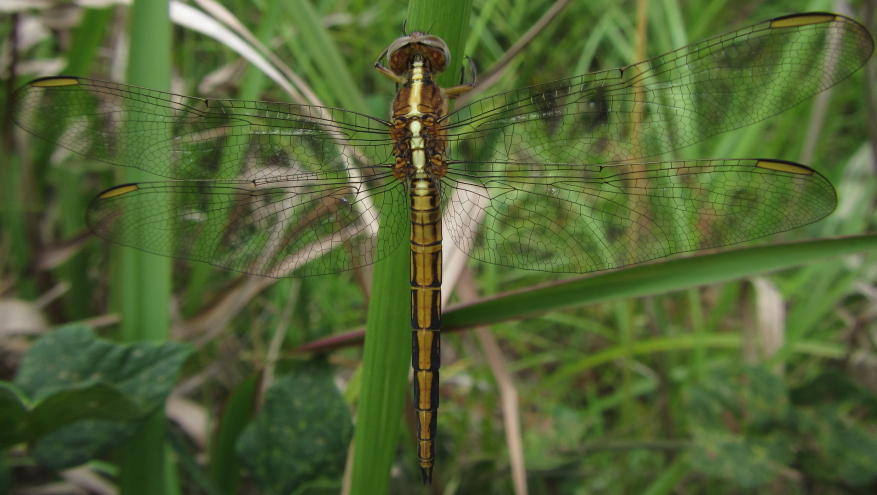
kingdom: Animalia
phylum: Arthropoda
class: Insecta
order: Odonata
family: Libellulidae
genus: Nesciothemis
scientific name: Nesciothemis farinosa
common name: Eastern blacktail
